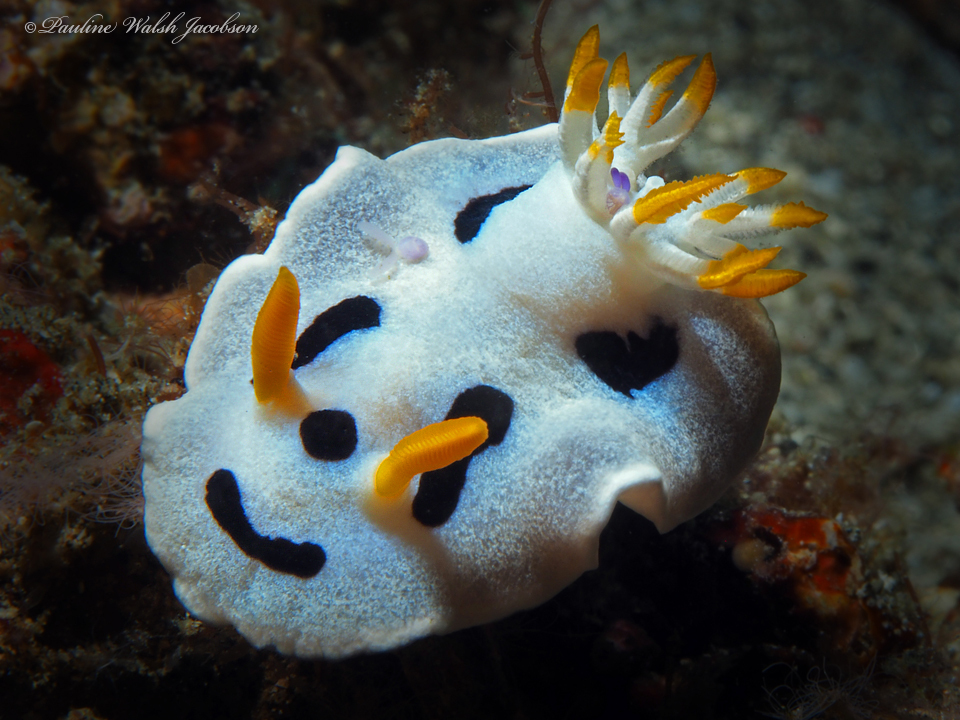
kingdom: Animalia
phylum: Mollusca
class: Gastropoda
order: Nudibranchia
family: Chromodorididae
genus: Chromodoris
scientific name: Chromodoris alcalai
